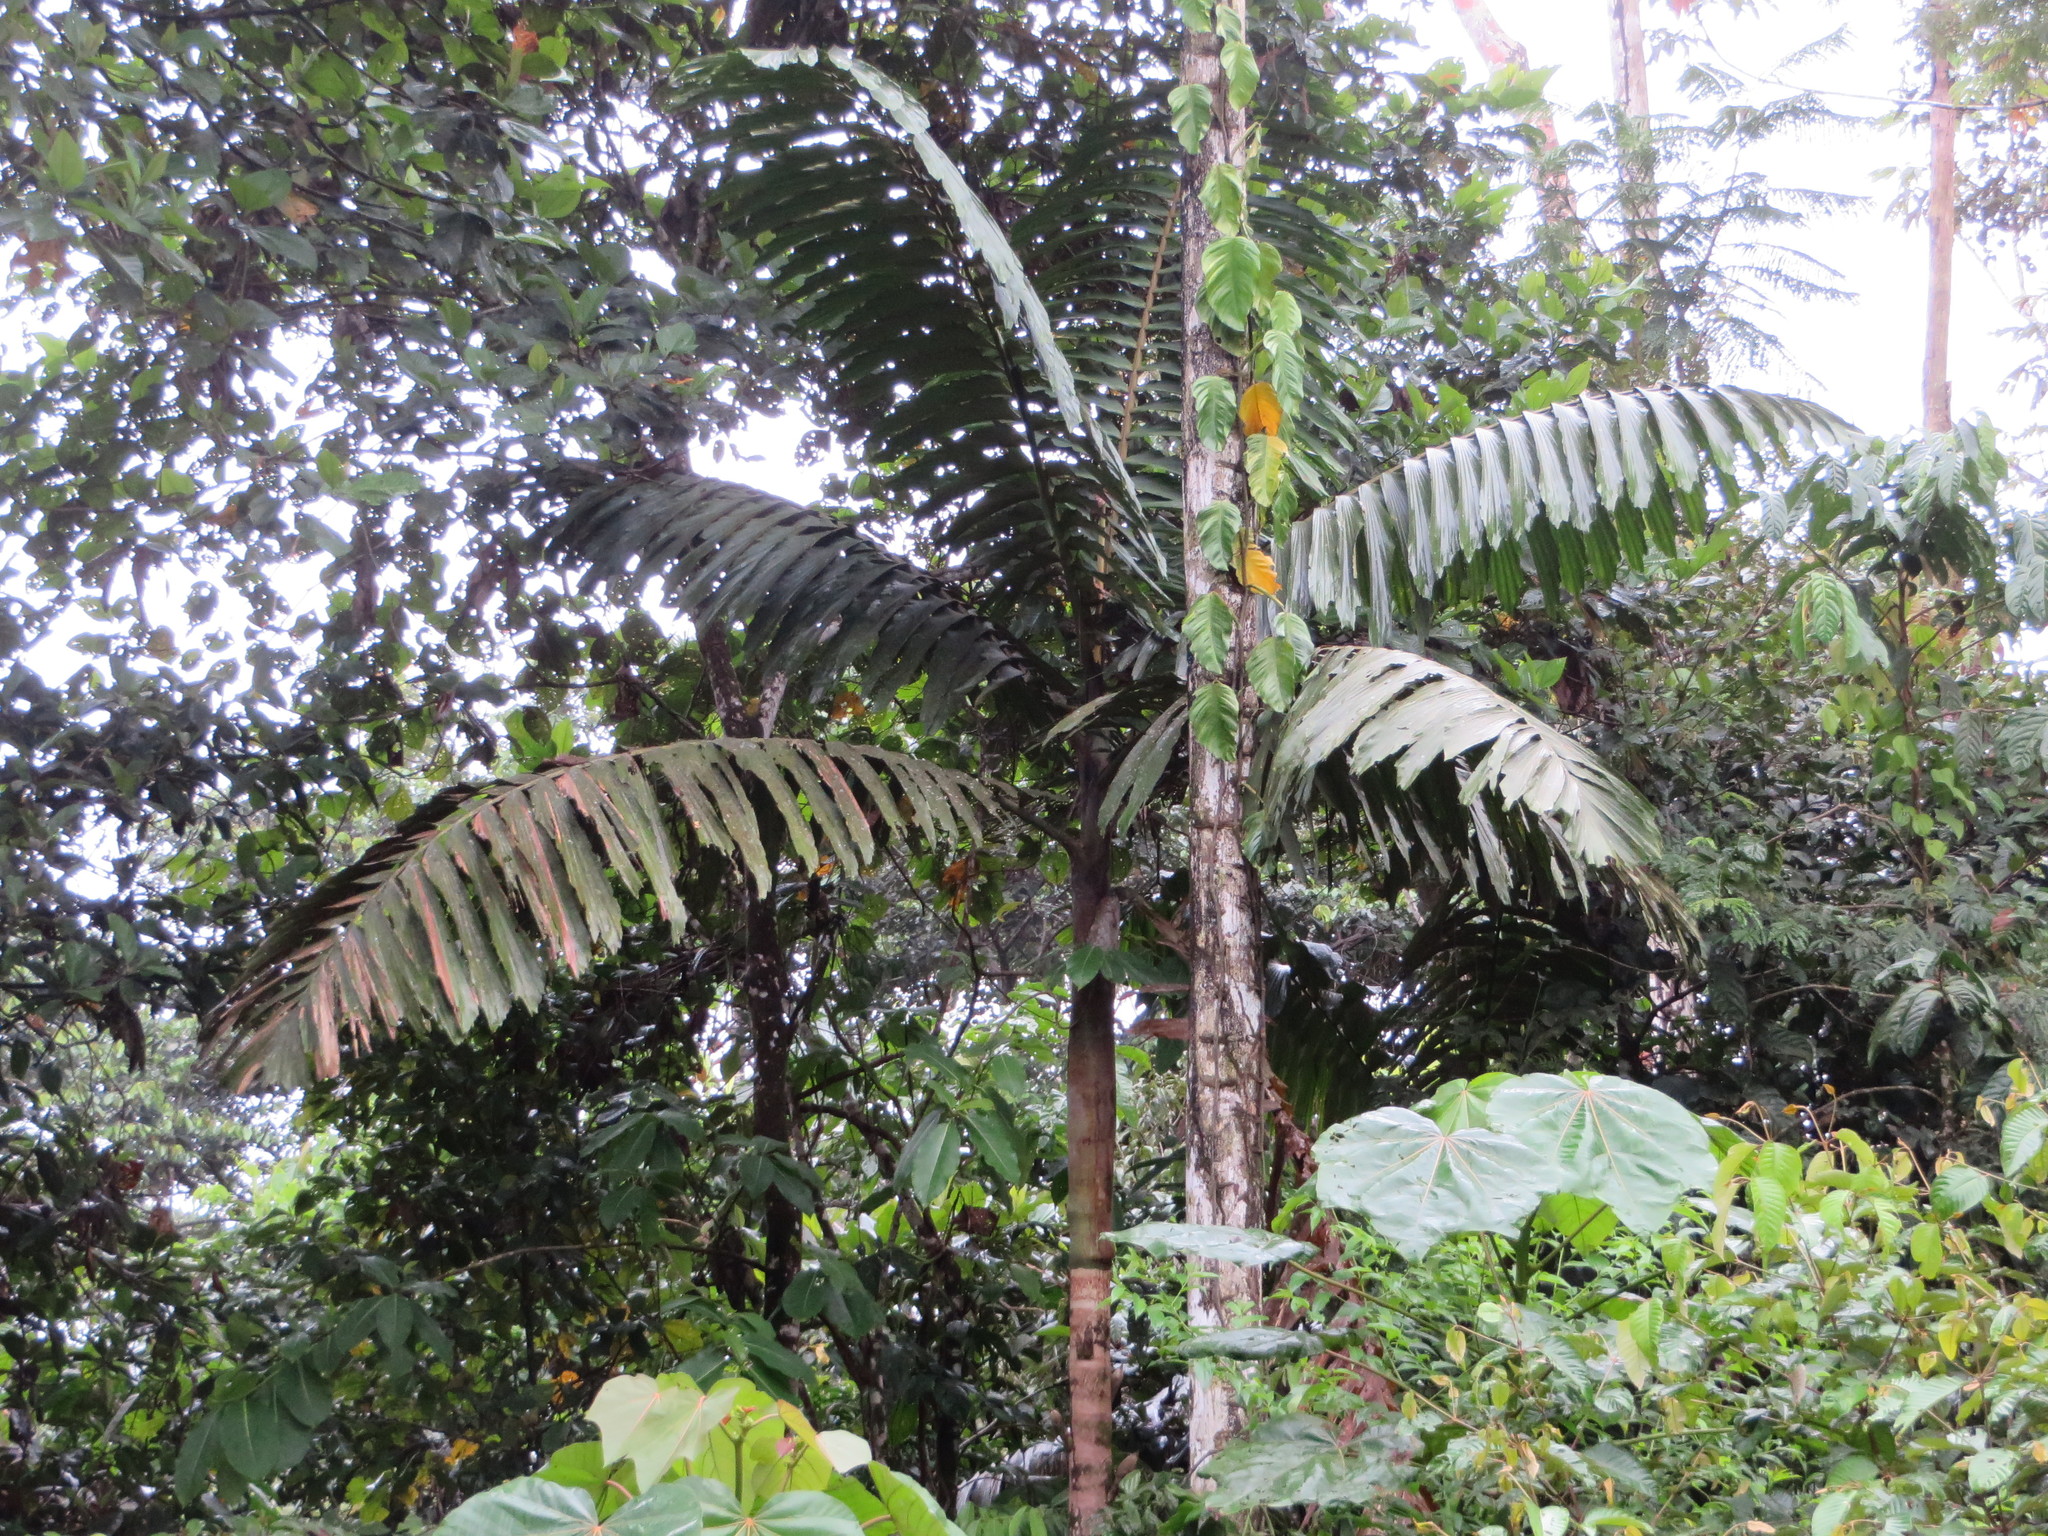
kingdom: Plantae
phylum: Tracheophyta
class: Liliopsida
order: Arecales
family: Arecaceae
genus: Wettinia
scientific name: Wettinia maynensis
